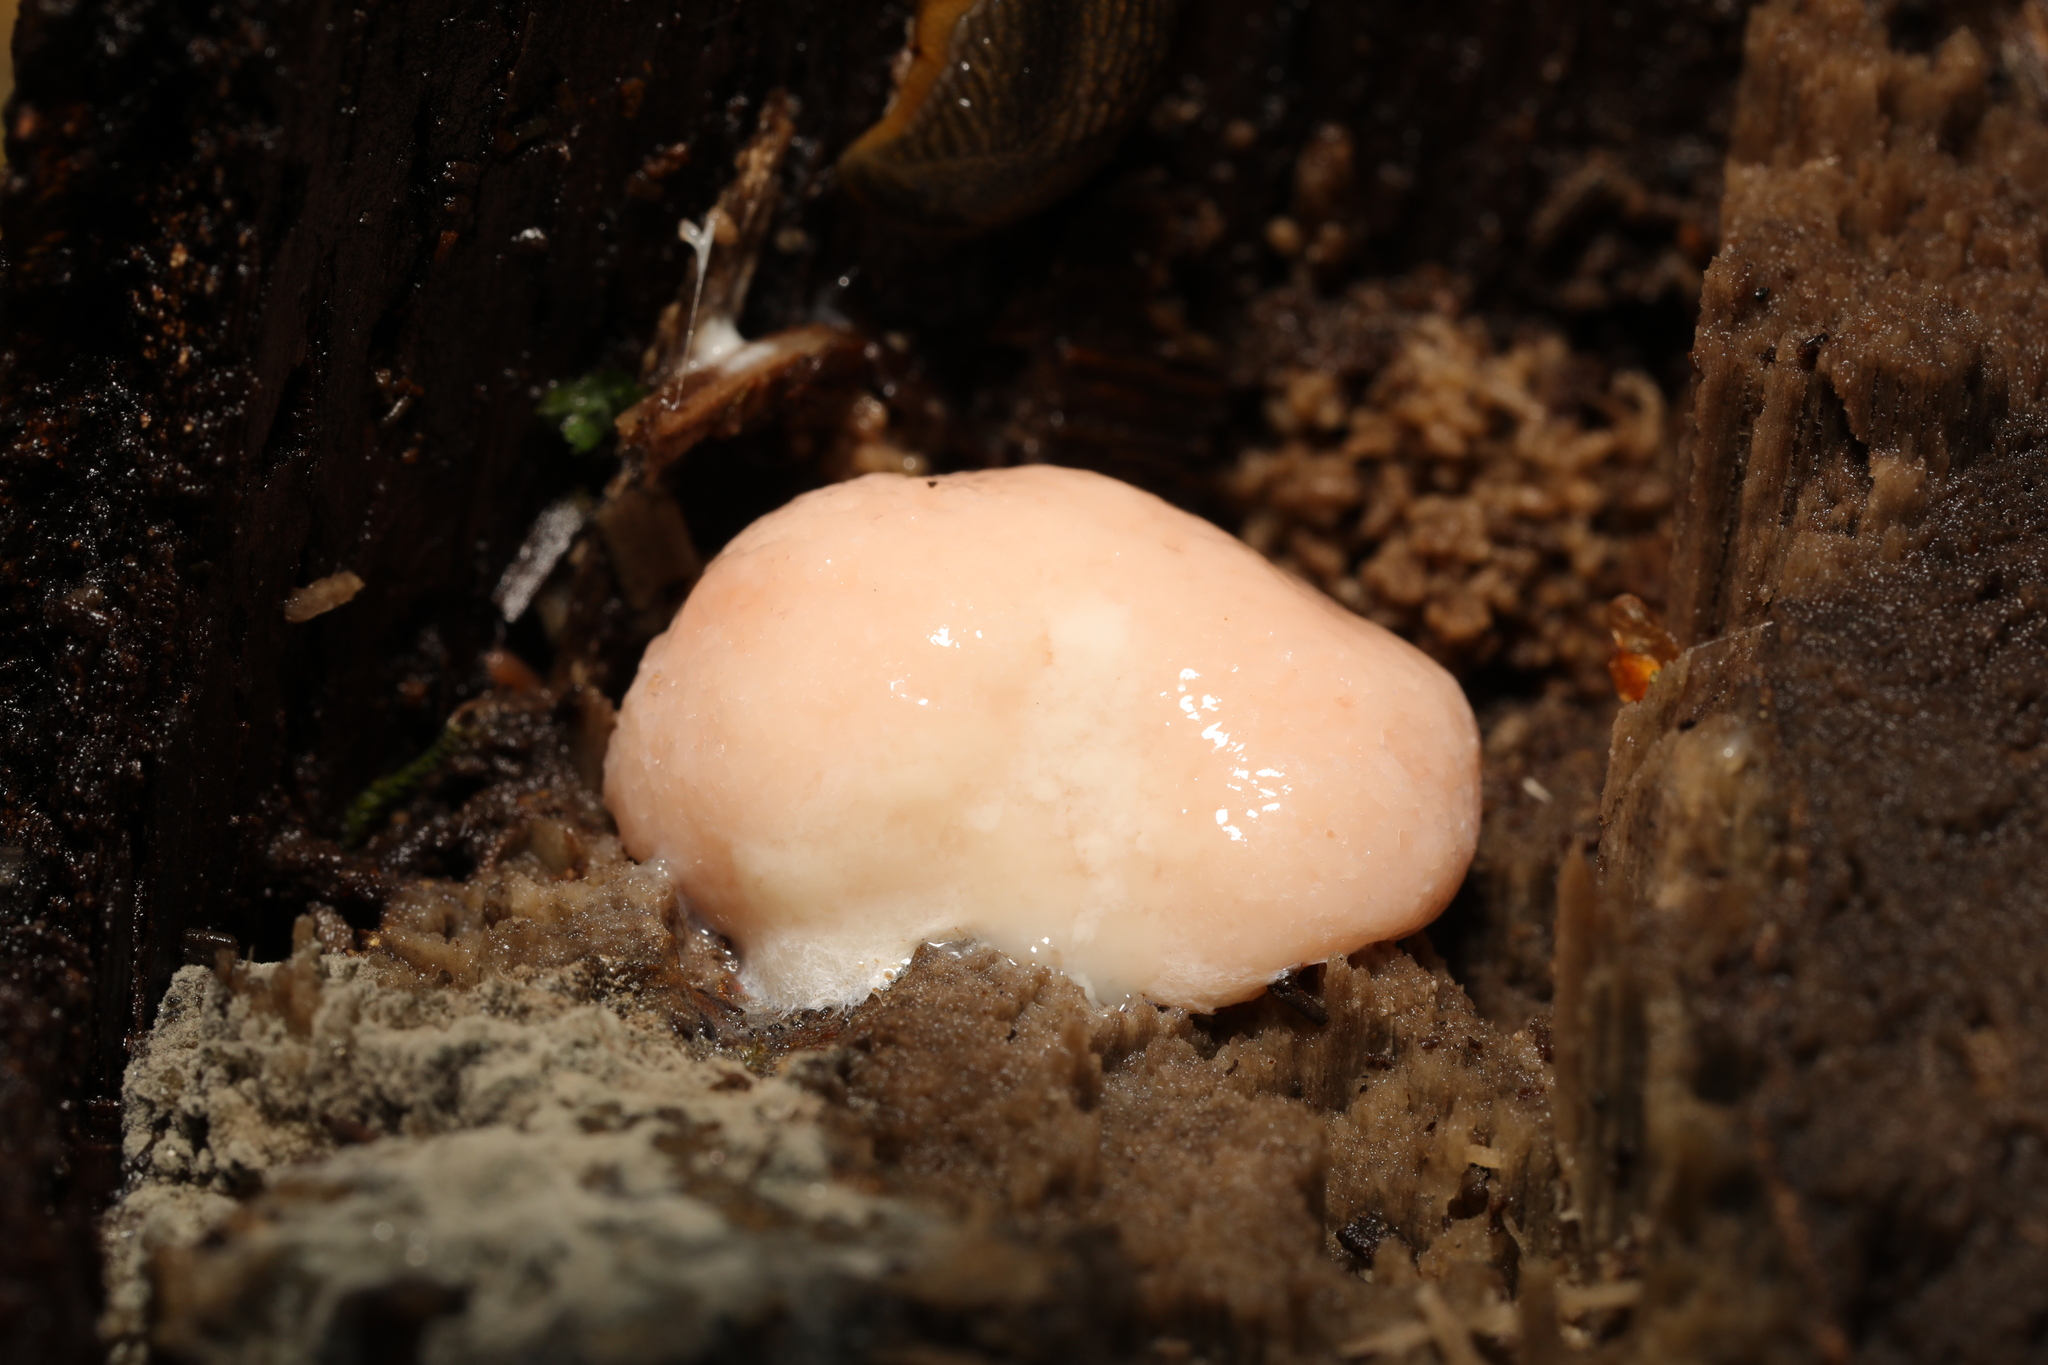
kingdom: Protozoa
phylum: Mycetozoa
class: Myxomycetes
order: Cribrariales
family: Tubiferaceae
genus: Reticularia
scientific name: Reticularia lycoperdon
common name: False puffball
